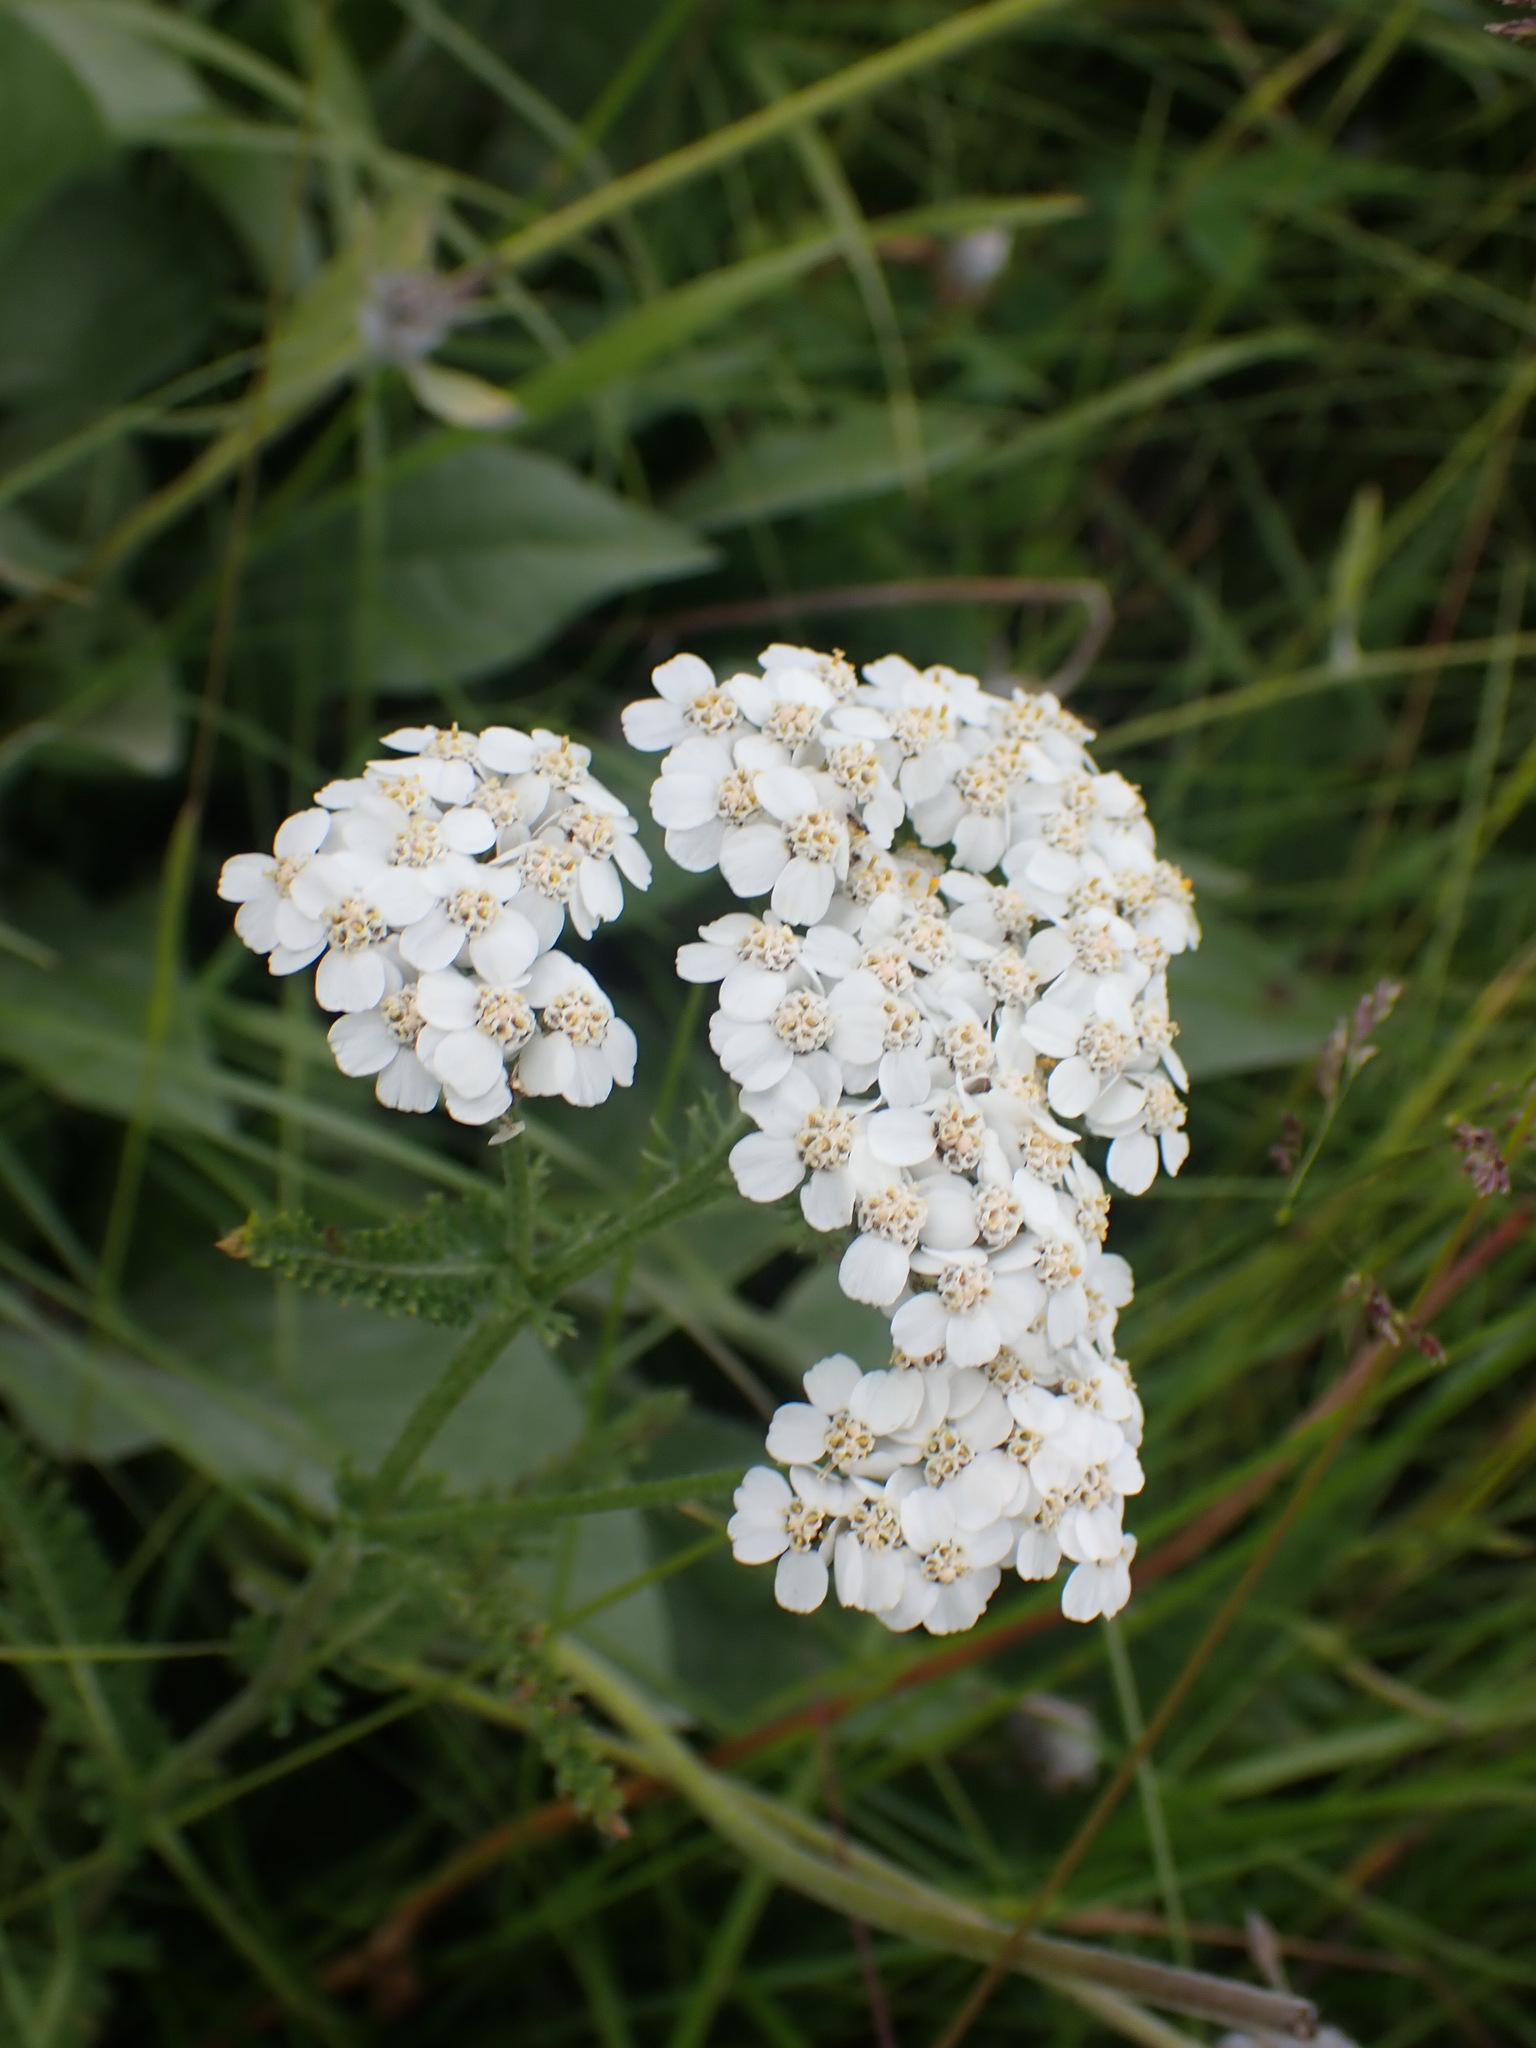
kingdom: Plantae
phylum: Tracheophyta
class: Magnoliopsida
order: Asterales
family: Asteraceae
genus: Achillea
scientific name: Achillea millefolium
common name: Yarrow
